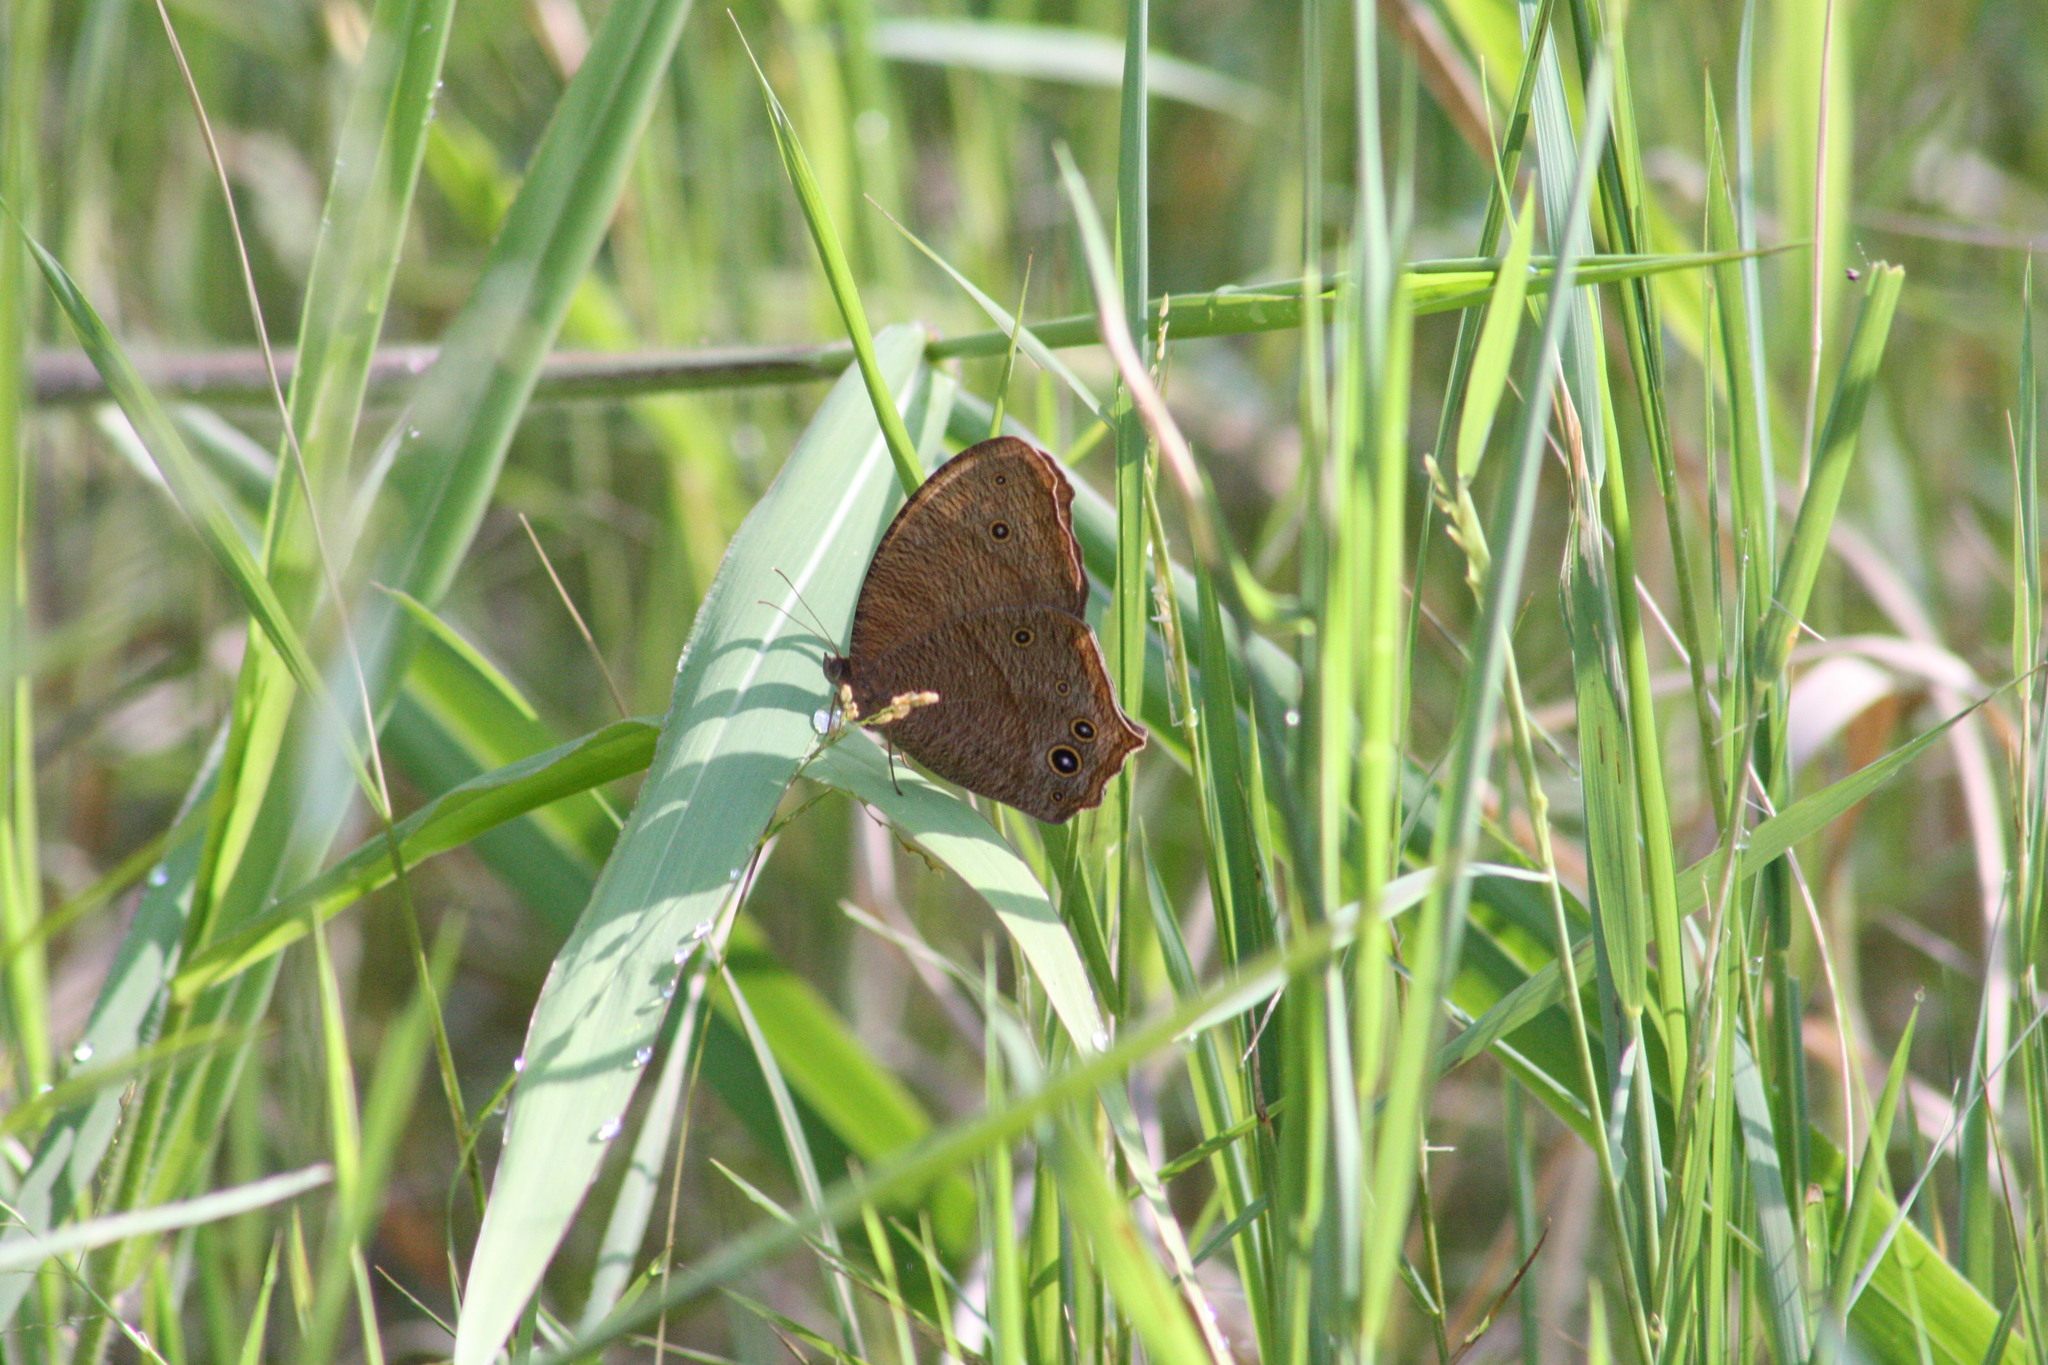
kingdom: Animalia
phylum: Arthropoda
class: Insecta
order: Lepidoptera
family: Nymphalidae
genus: Melanitis
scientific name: Melanitis leda
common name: Twilight brown
